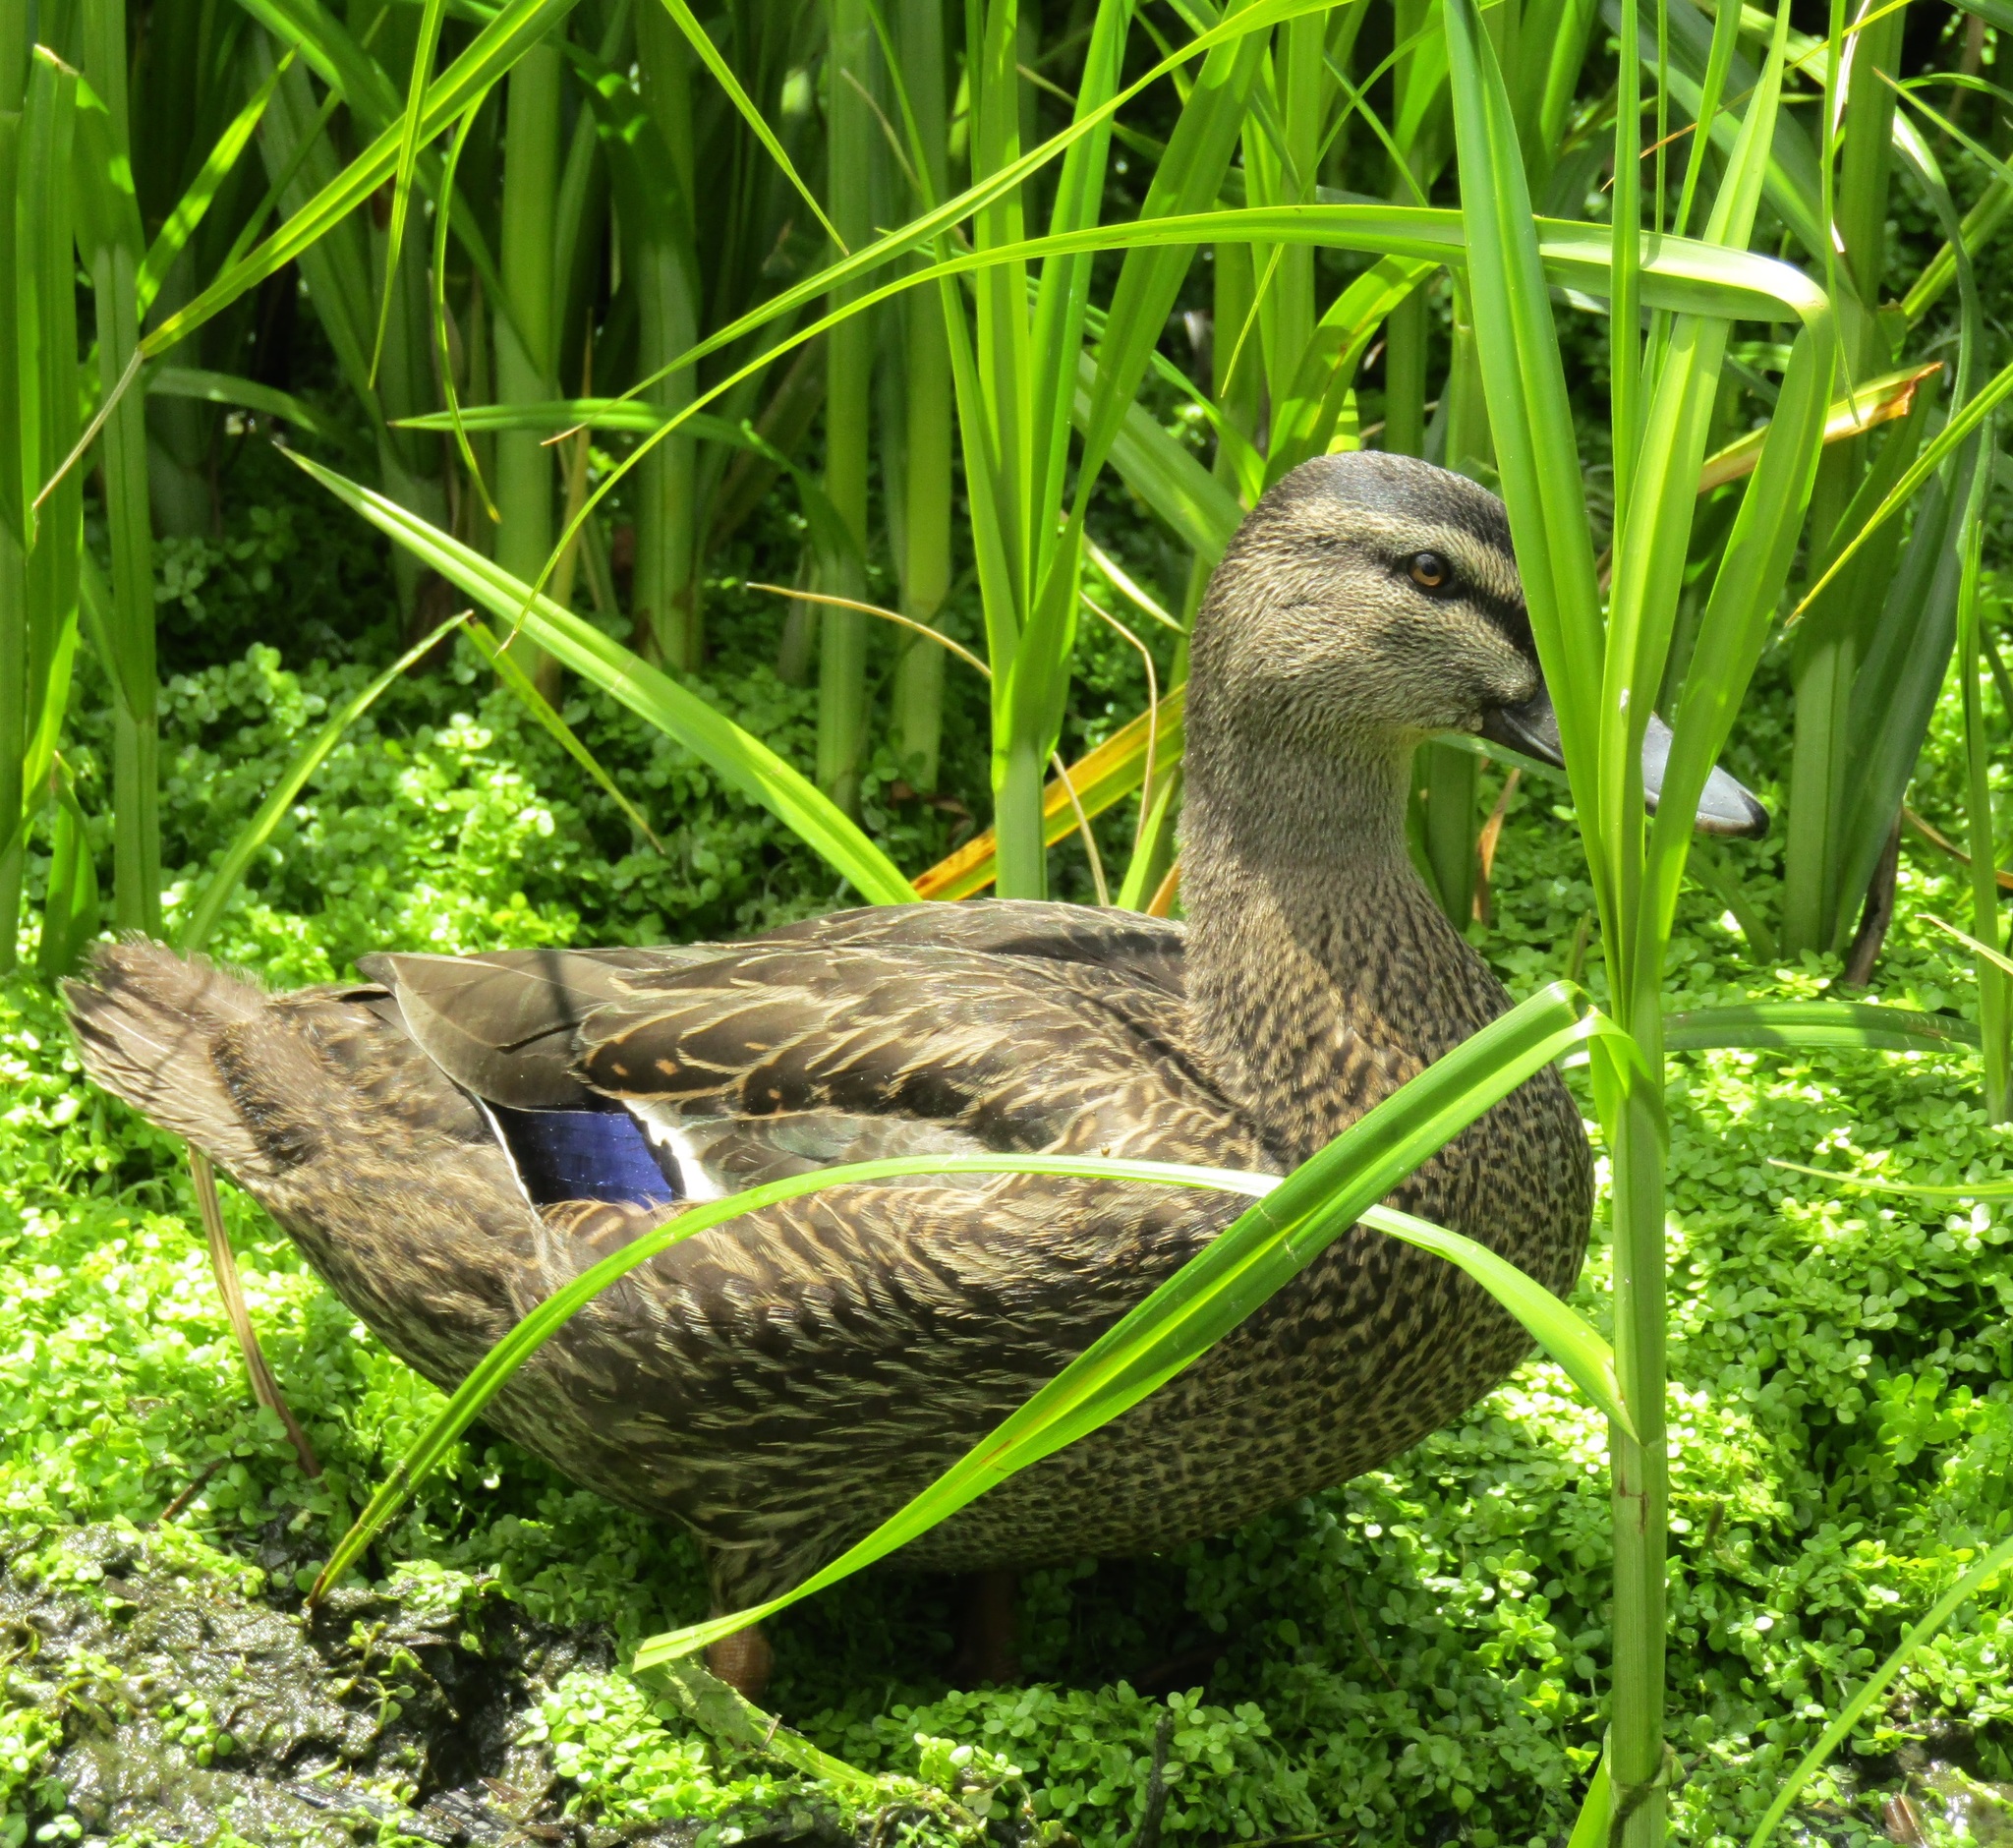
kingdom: Animalia
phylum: Chordata
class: Aves
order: Anseriformes
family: Anatidae
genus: Anas
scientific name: Anas
